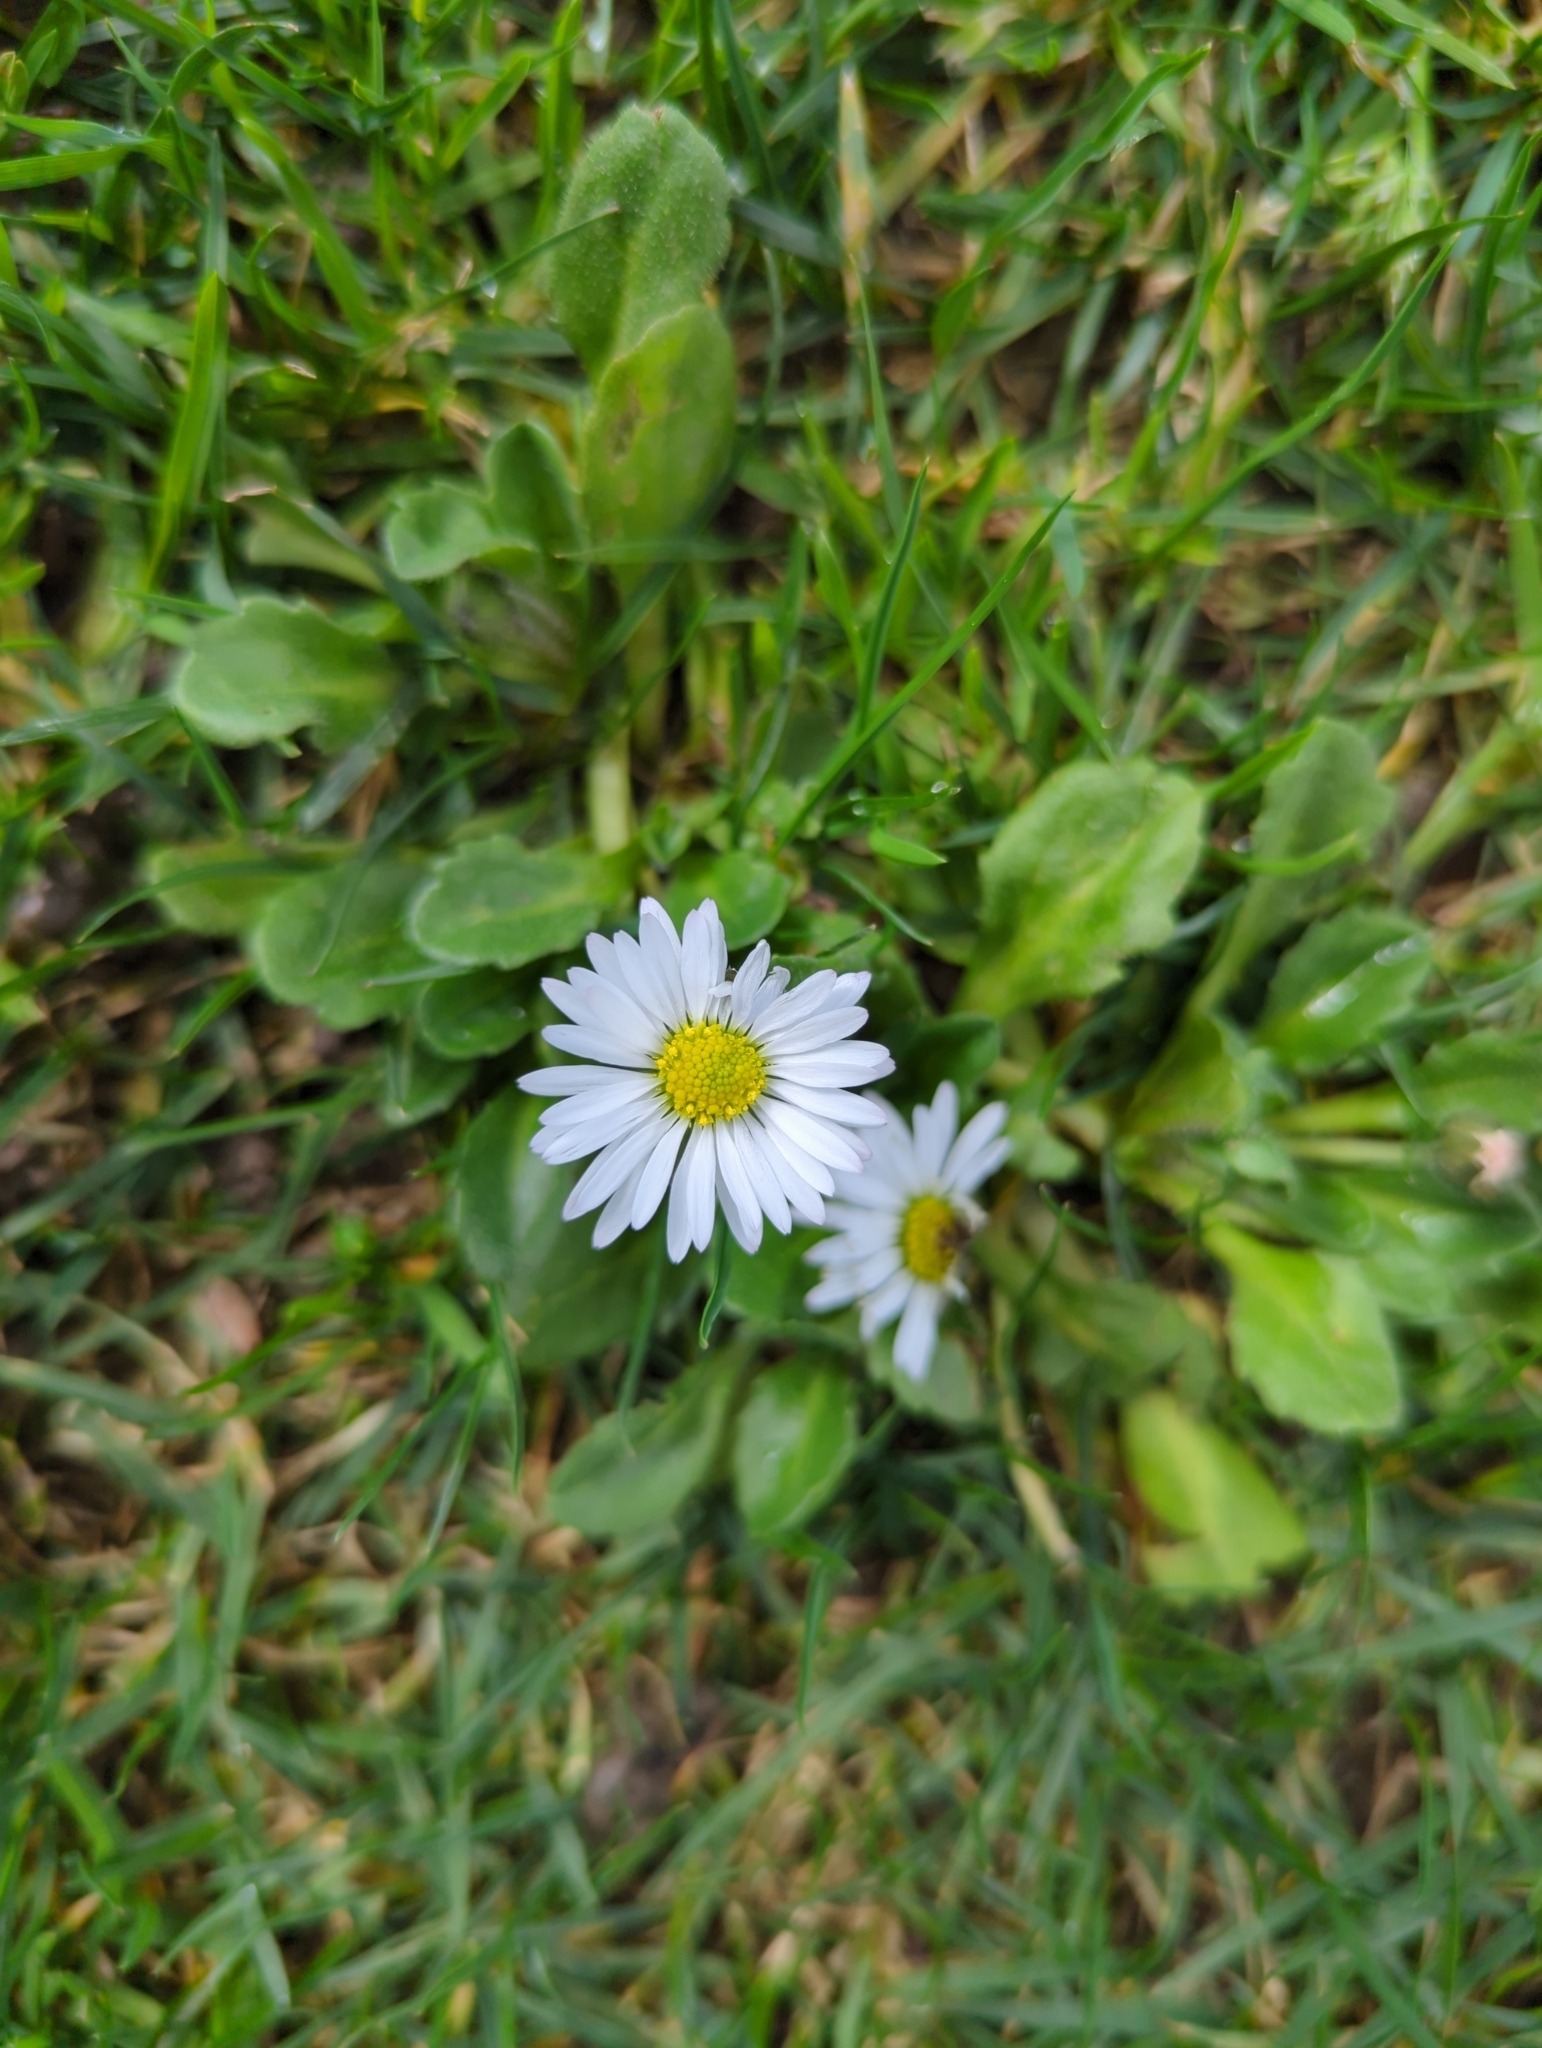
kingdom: Plantae
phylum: Tracheophyta
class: Magnoliopsida
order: Asterales
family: Asteraceae
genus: Bellis
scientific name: Bellis perennis
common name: Lawndaisy
